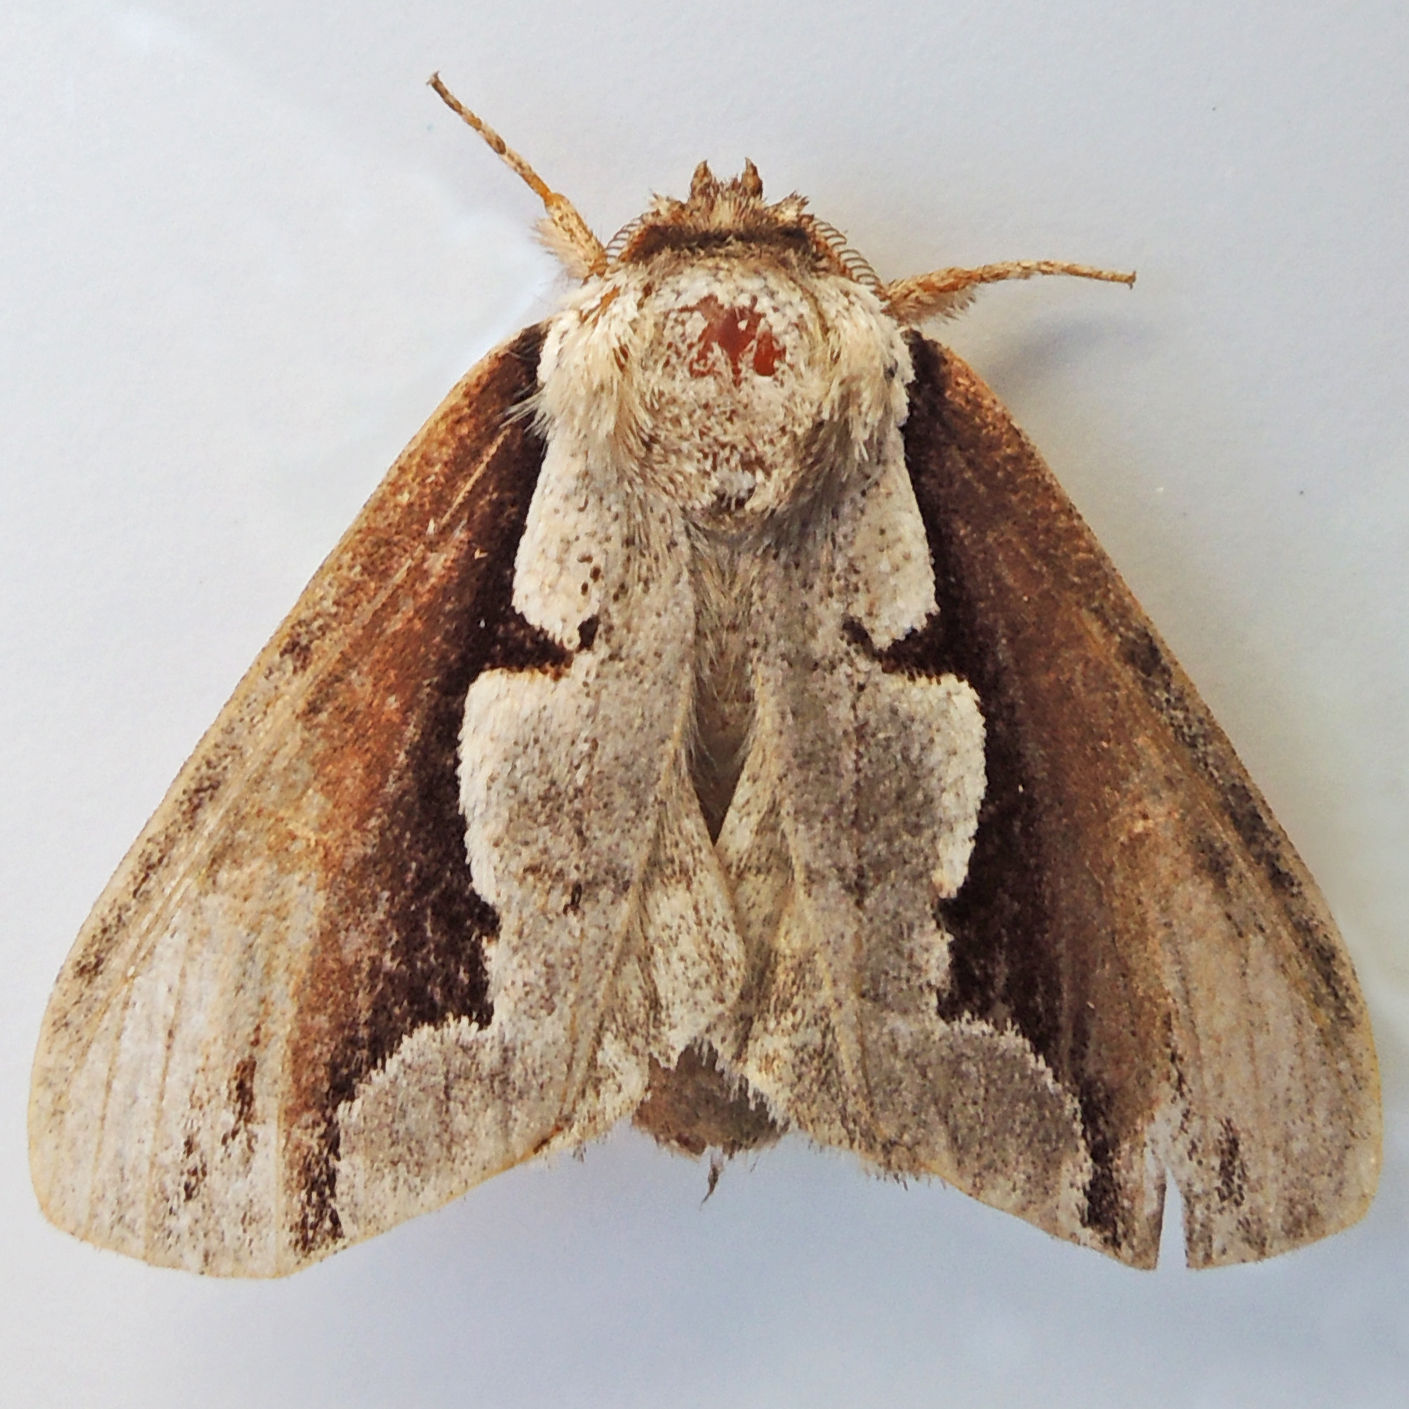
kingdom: Animalia
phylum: Arthropoda
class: Insecta
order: Lepidoptera
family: Notodontidae
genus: Nerice
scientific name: Nerice bidentata
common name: Double-toothed prominent
